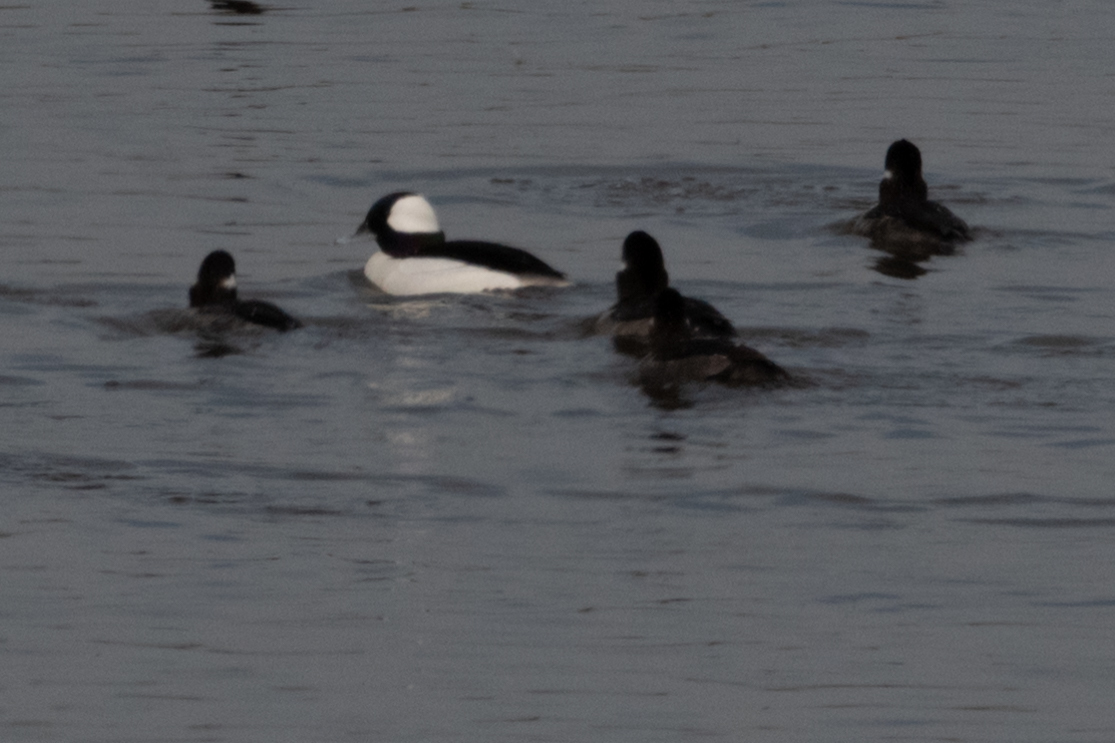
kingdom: Animalia
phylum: Chordata
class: Aves
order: Anseriformes
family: Anatidae
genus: Bucephala
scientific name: Bucephala albeola
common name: Bufflehead
